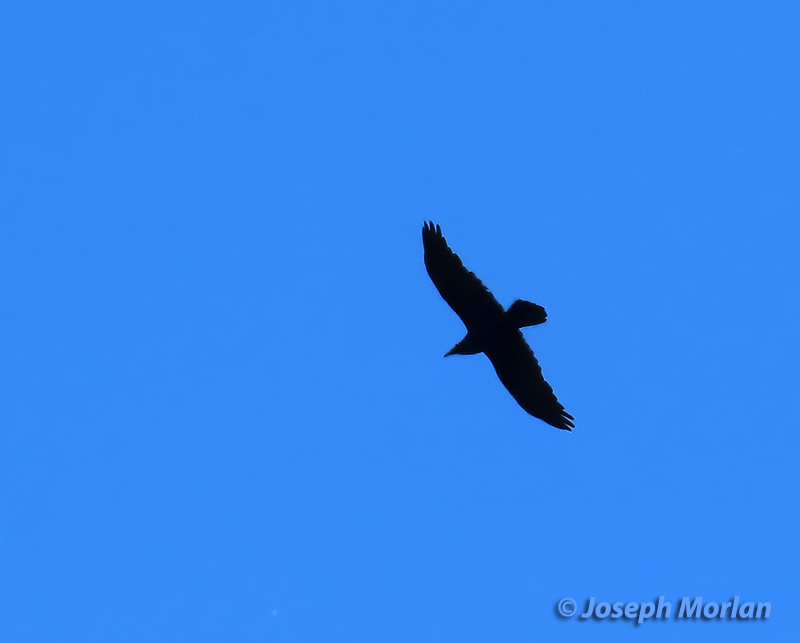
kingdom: Animalia
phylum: Chordata
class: Aves
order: Passeriformes
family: Corvidae
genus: Corvus
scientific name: Corvus corax
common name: Common raven
